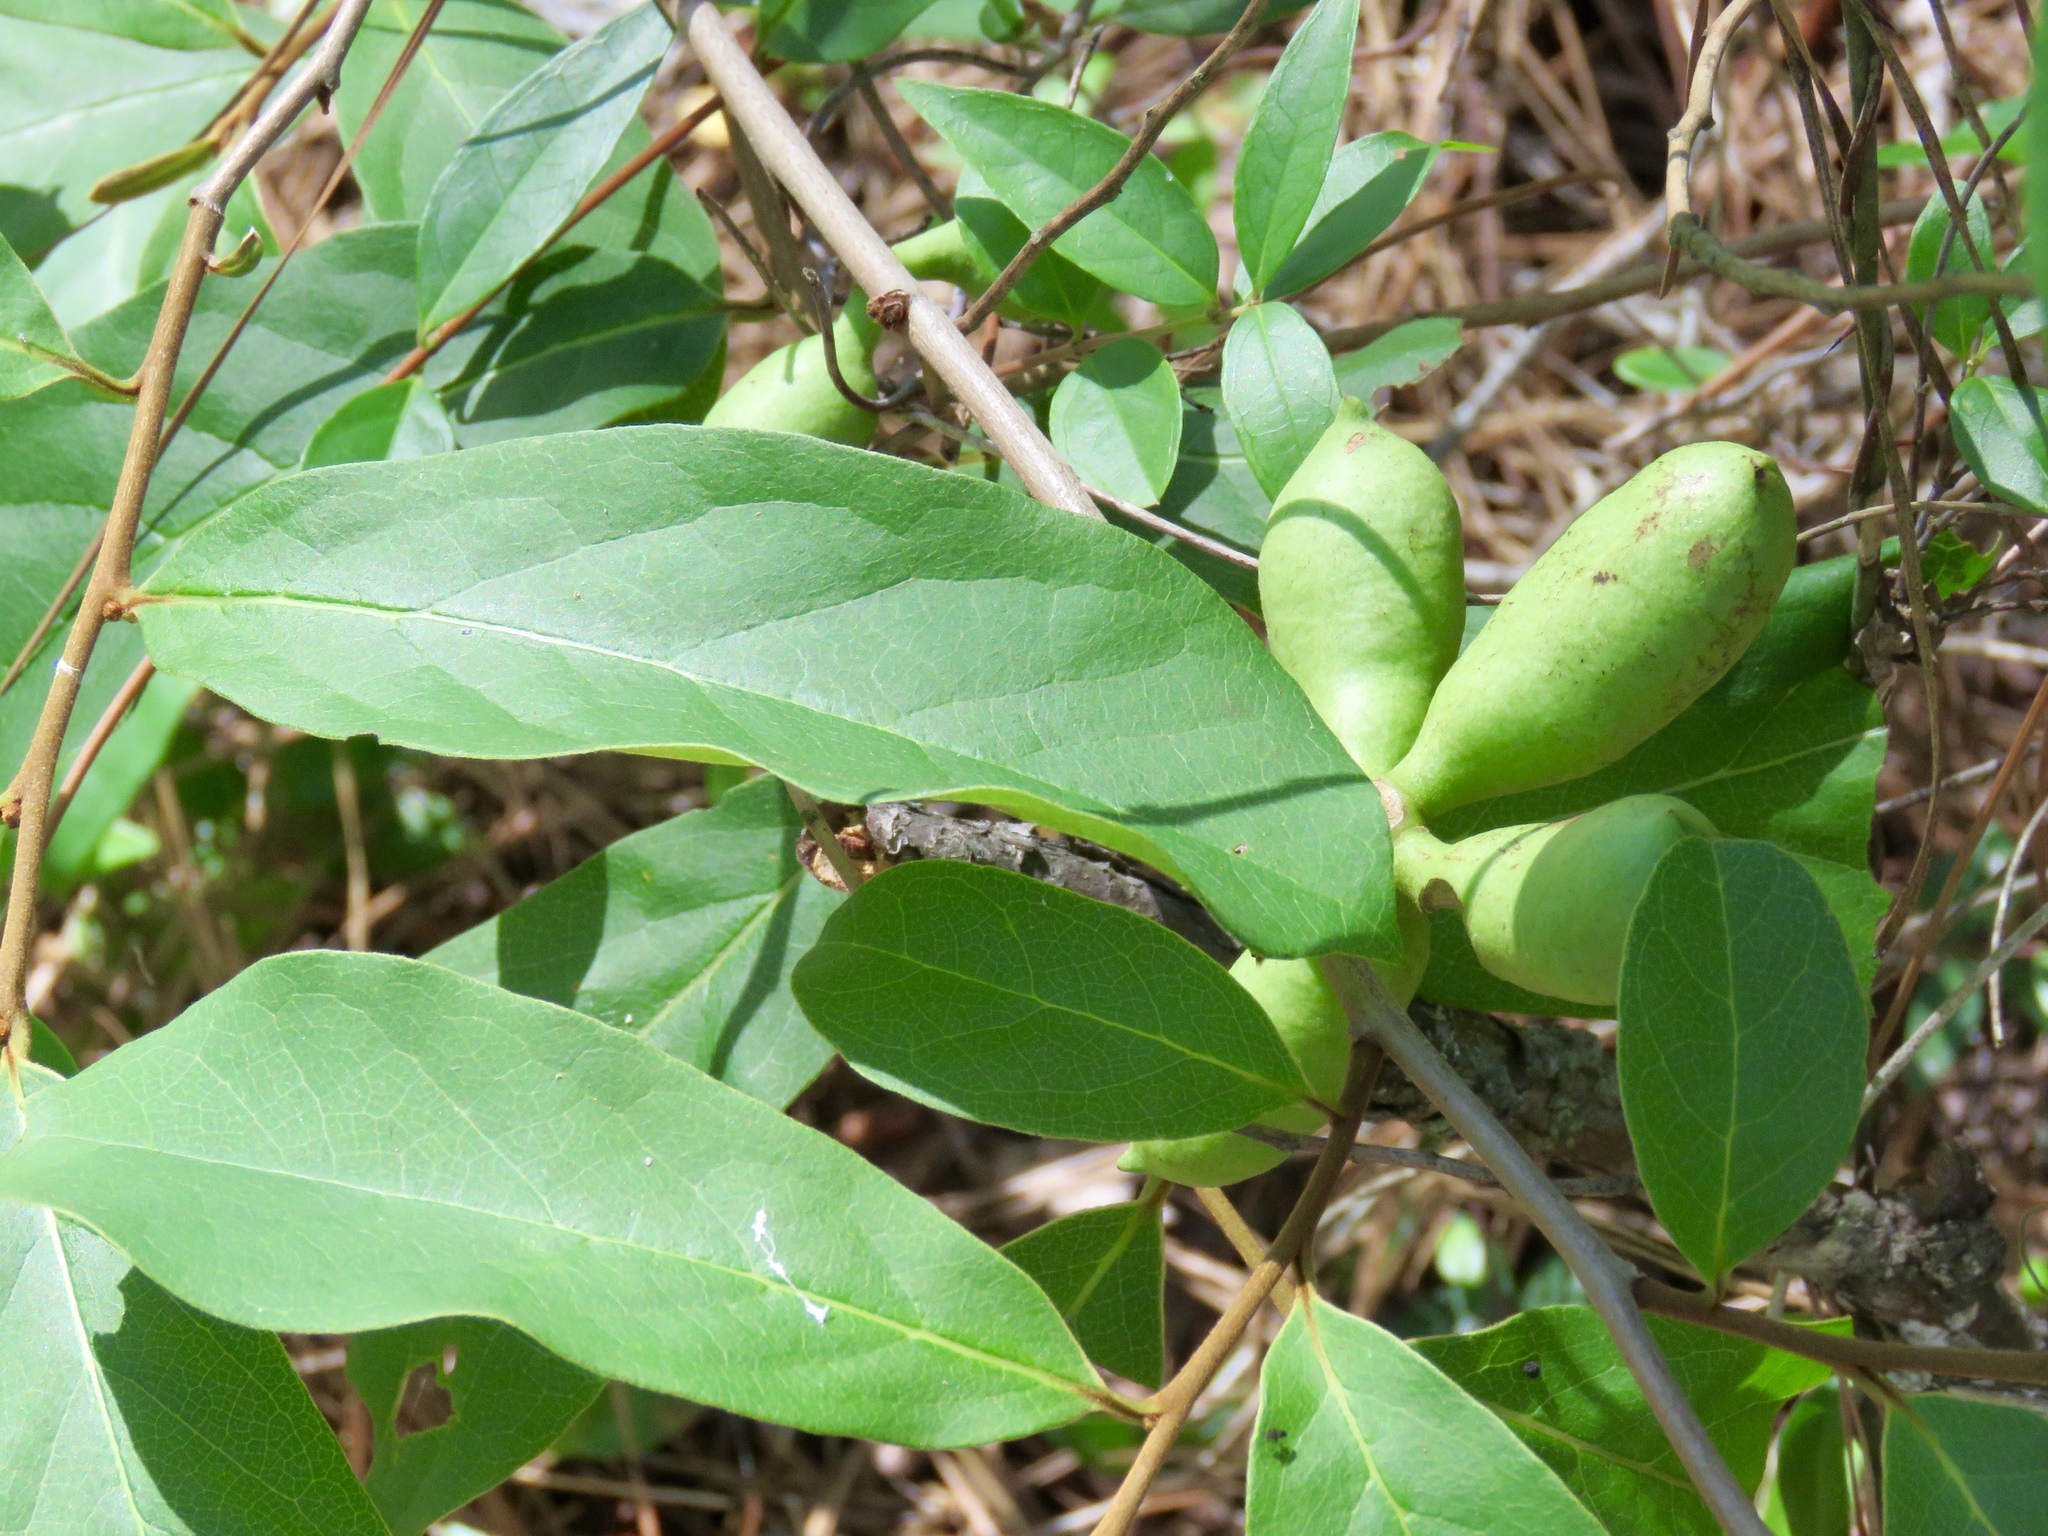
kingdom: Plantae
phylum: Tracheophyta
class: Magnoliopsida
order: Magnoliales
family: Annonaceae
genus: Asimina
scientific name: Asimina parviflora
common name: Dwarf pawpaw
